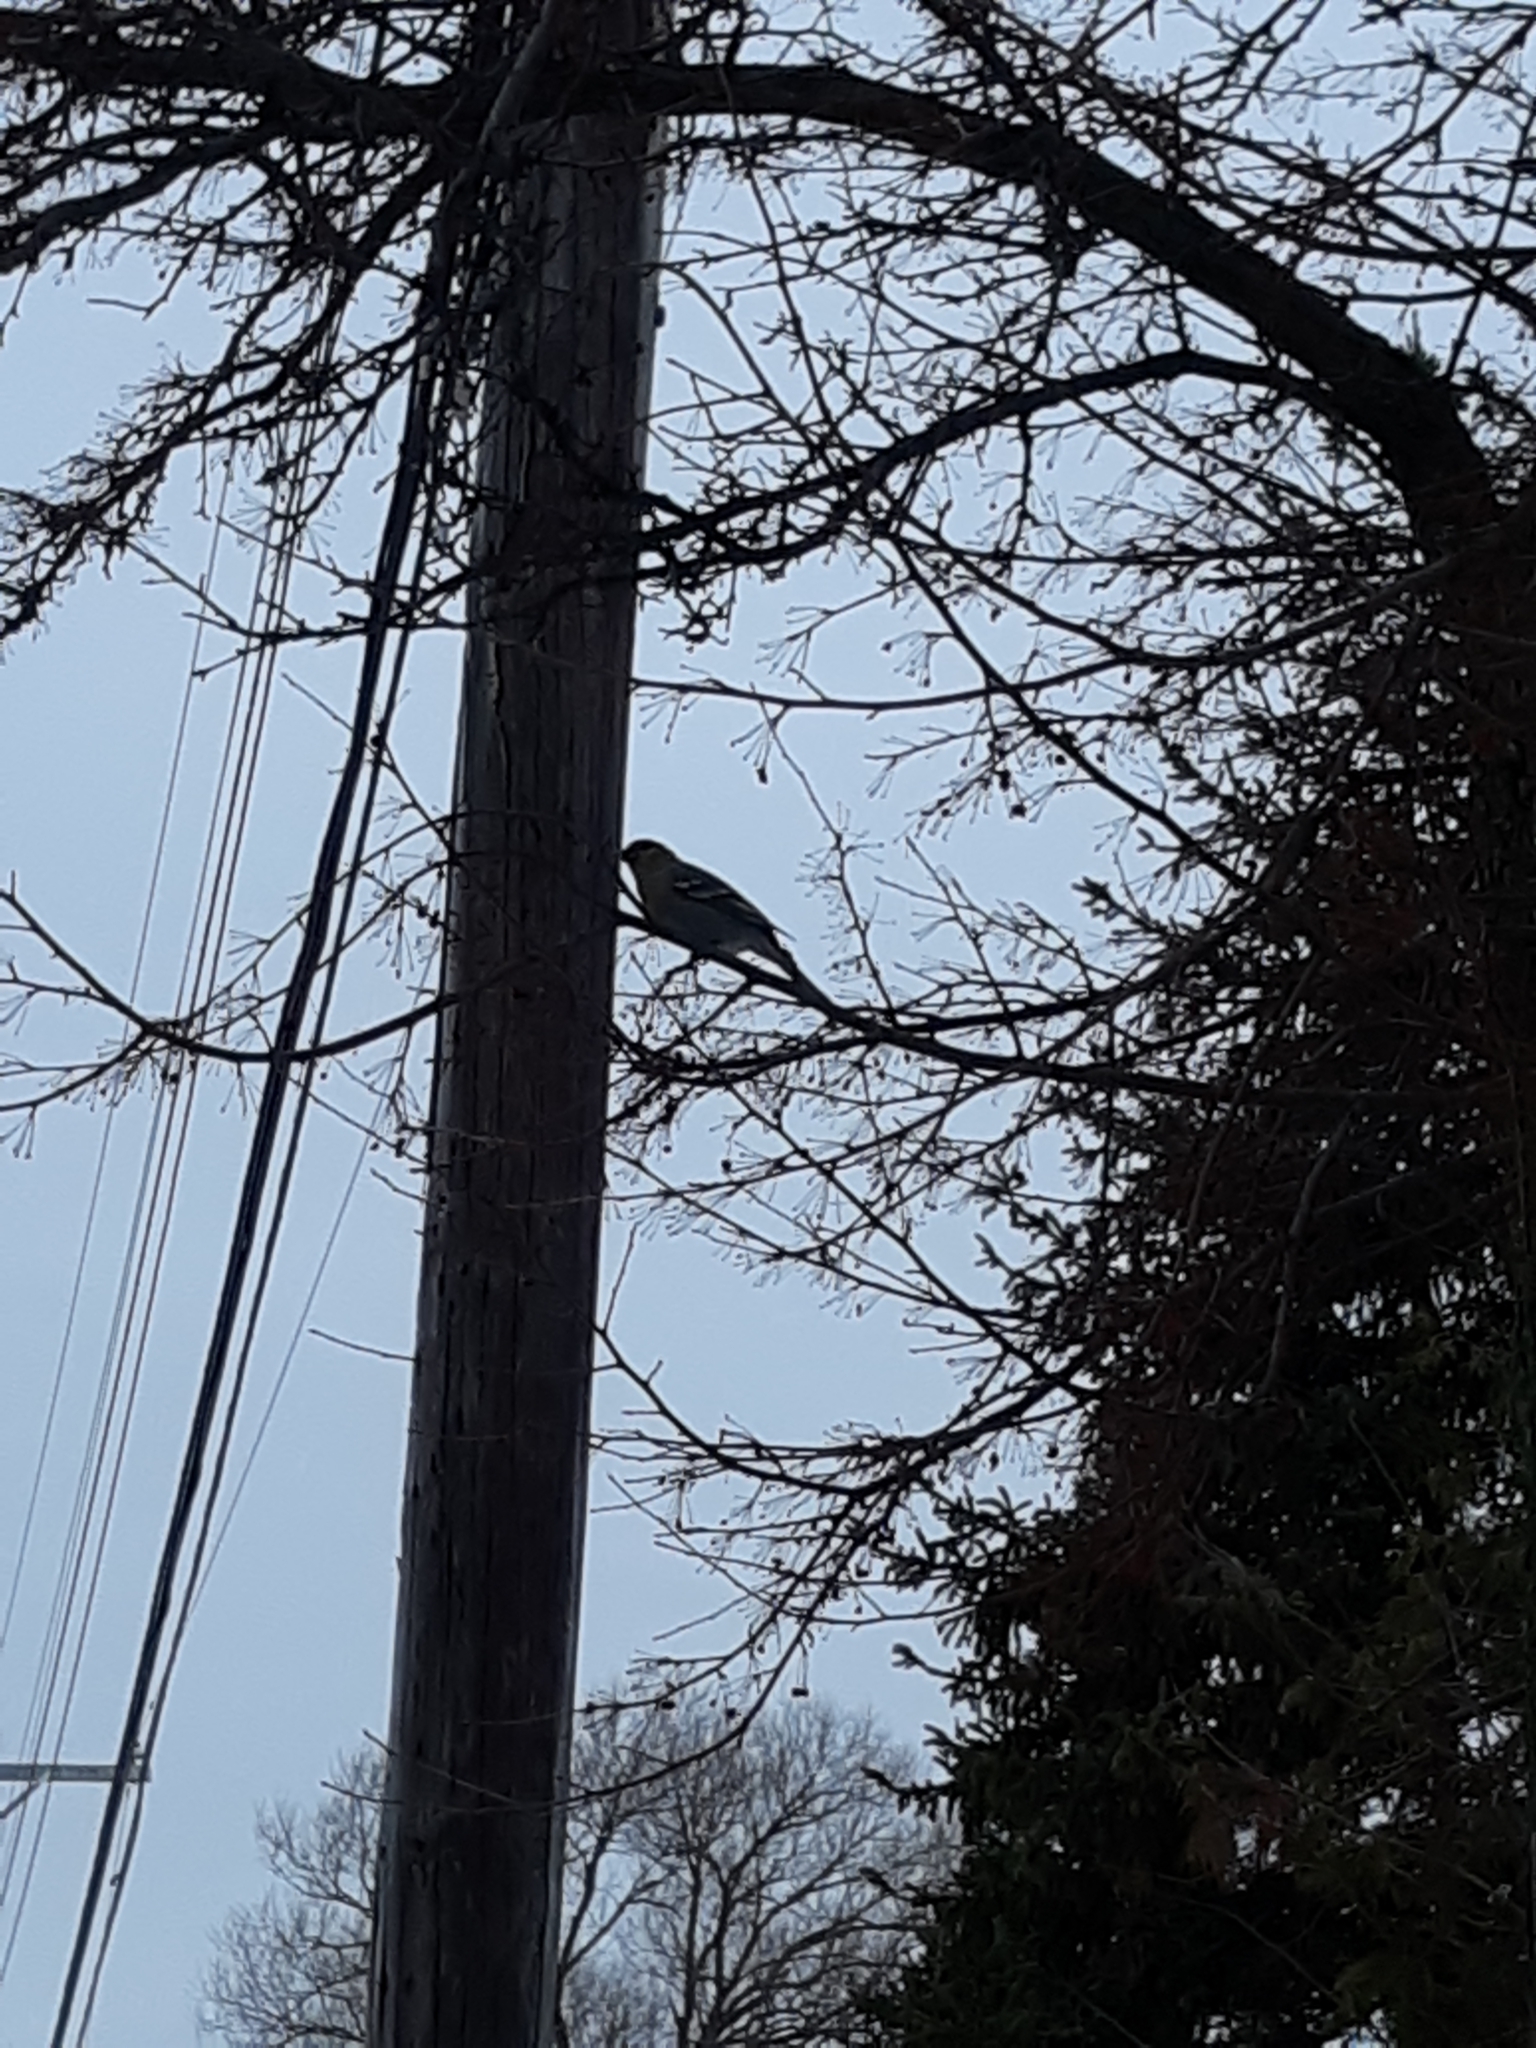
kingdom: Animalia
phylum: Chordata
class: Aves
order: Passeriformes
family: Fringillidae
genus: Pinicola
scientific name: Pinicola enucleator
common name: Pine grosbeak
